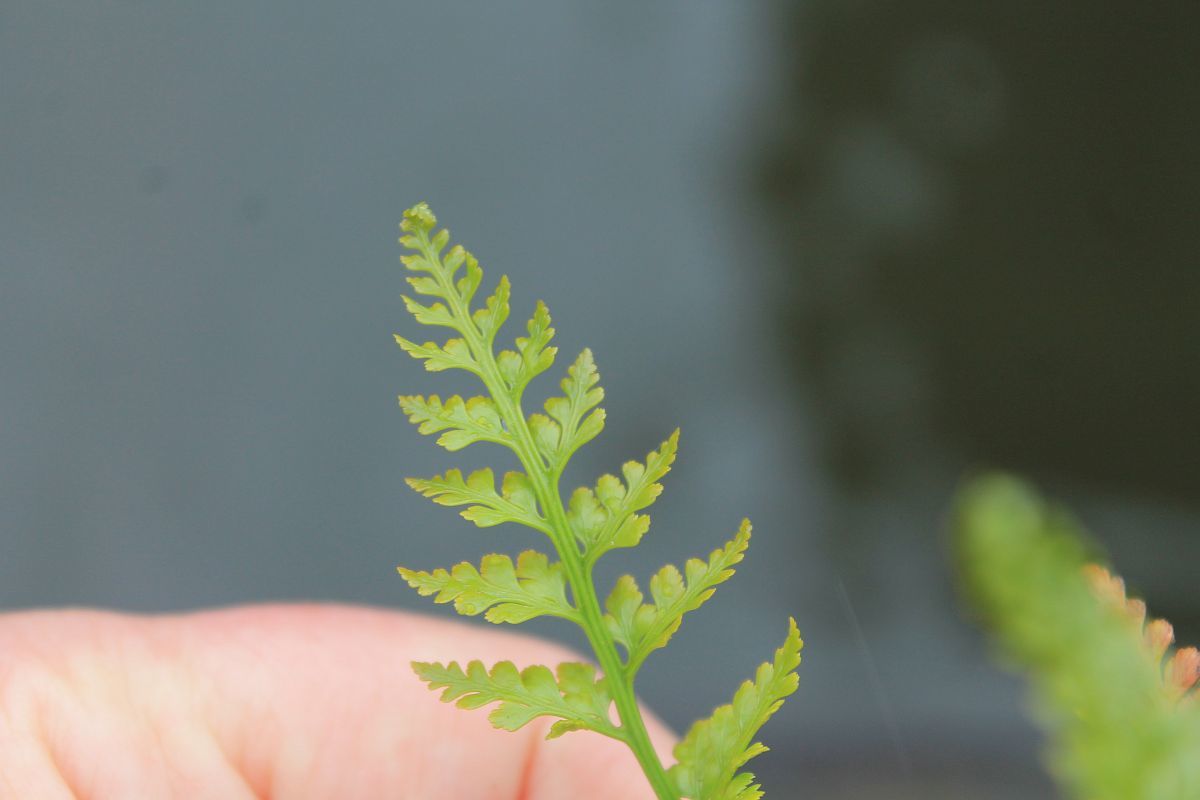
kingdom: Plantae
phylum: Tracheophyta
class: Polypodiopsida
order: Polypodiales
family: Aspleniaceae
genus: Asplenium
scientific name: Asplenium adiantum-nigrum
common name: Black spleenwort
